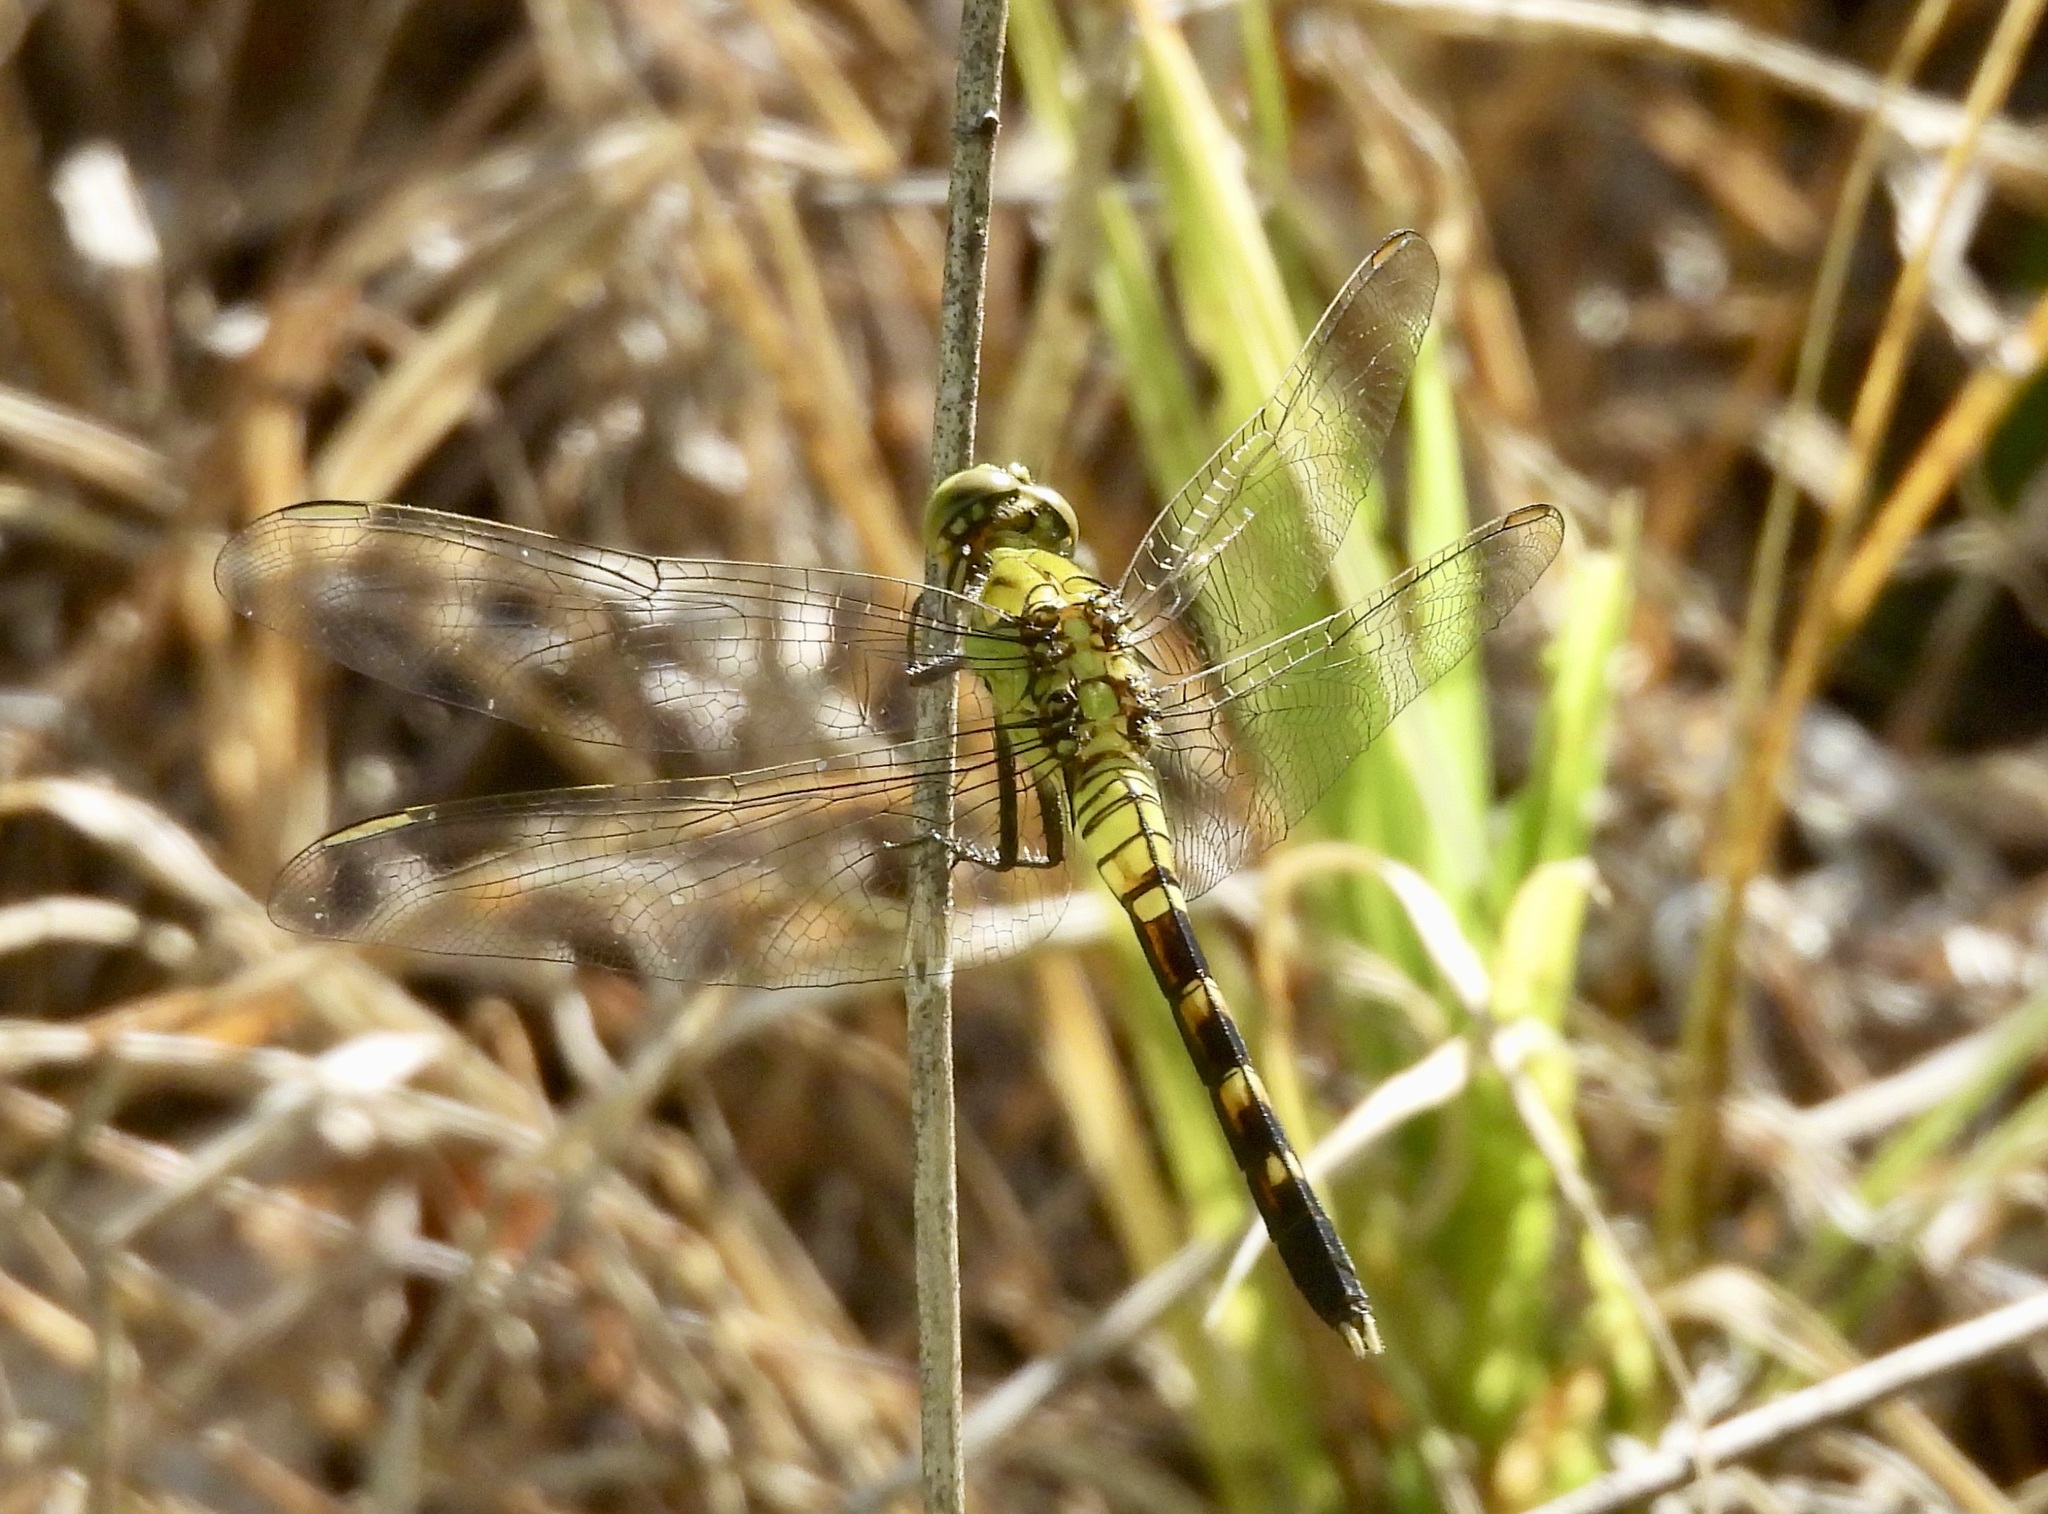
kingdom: Animalia
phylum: Arthropoda
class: Insecta
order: Odonata
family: Libellulidae
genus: Erythemis
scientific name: Erythemis simplicicollis
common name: Eastern pondhawk
